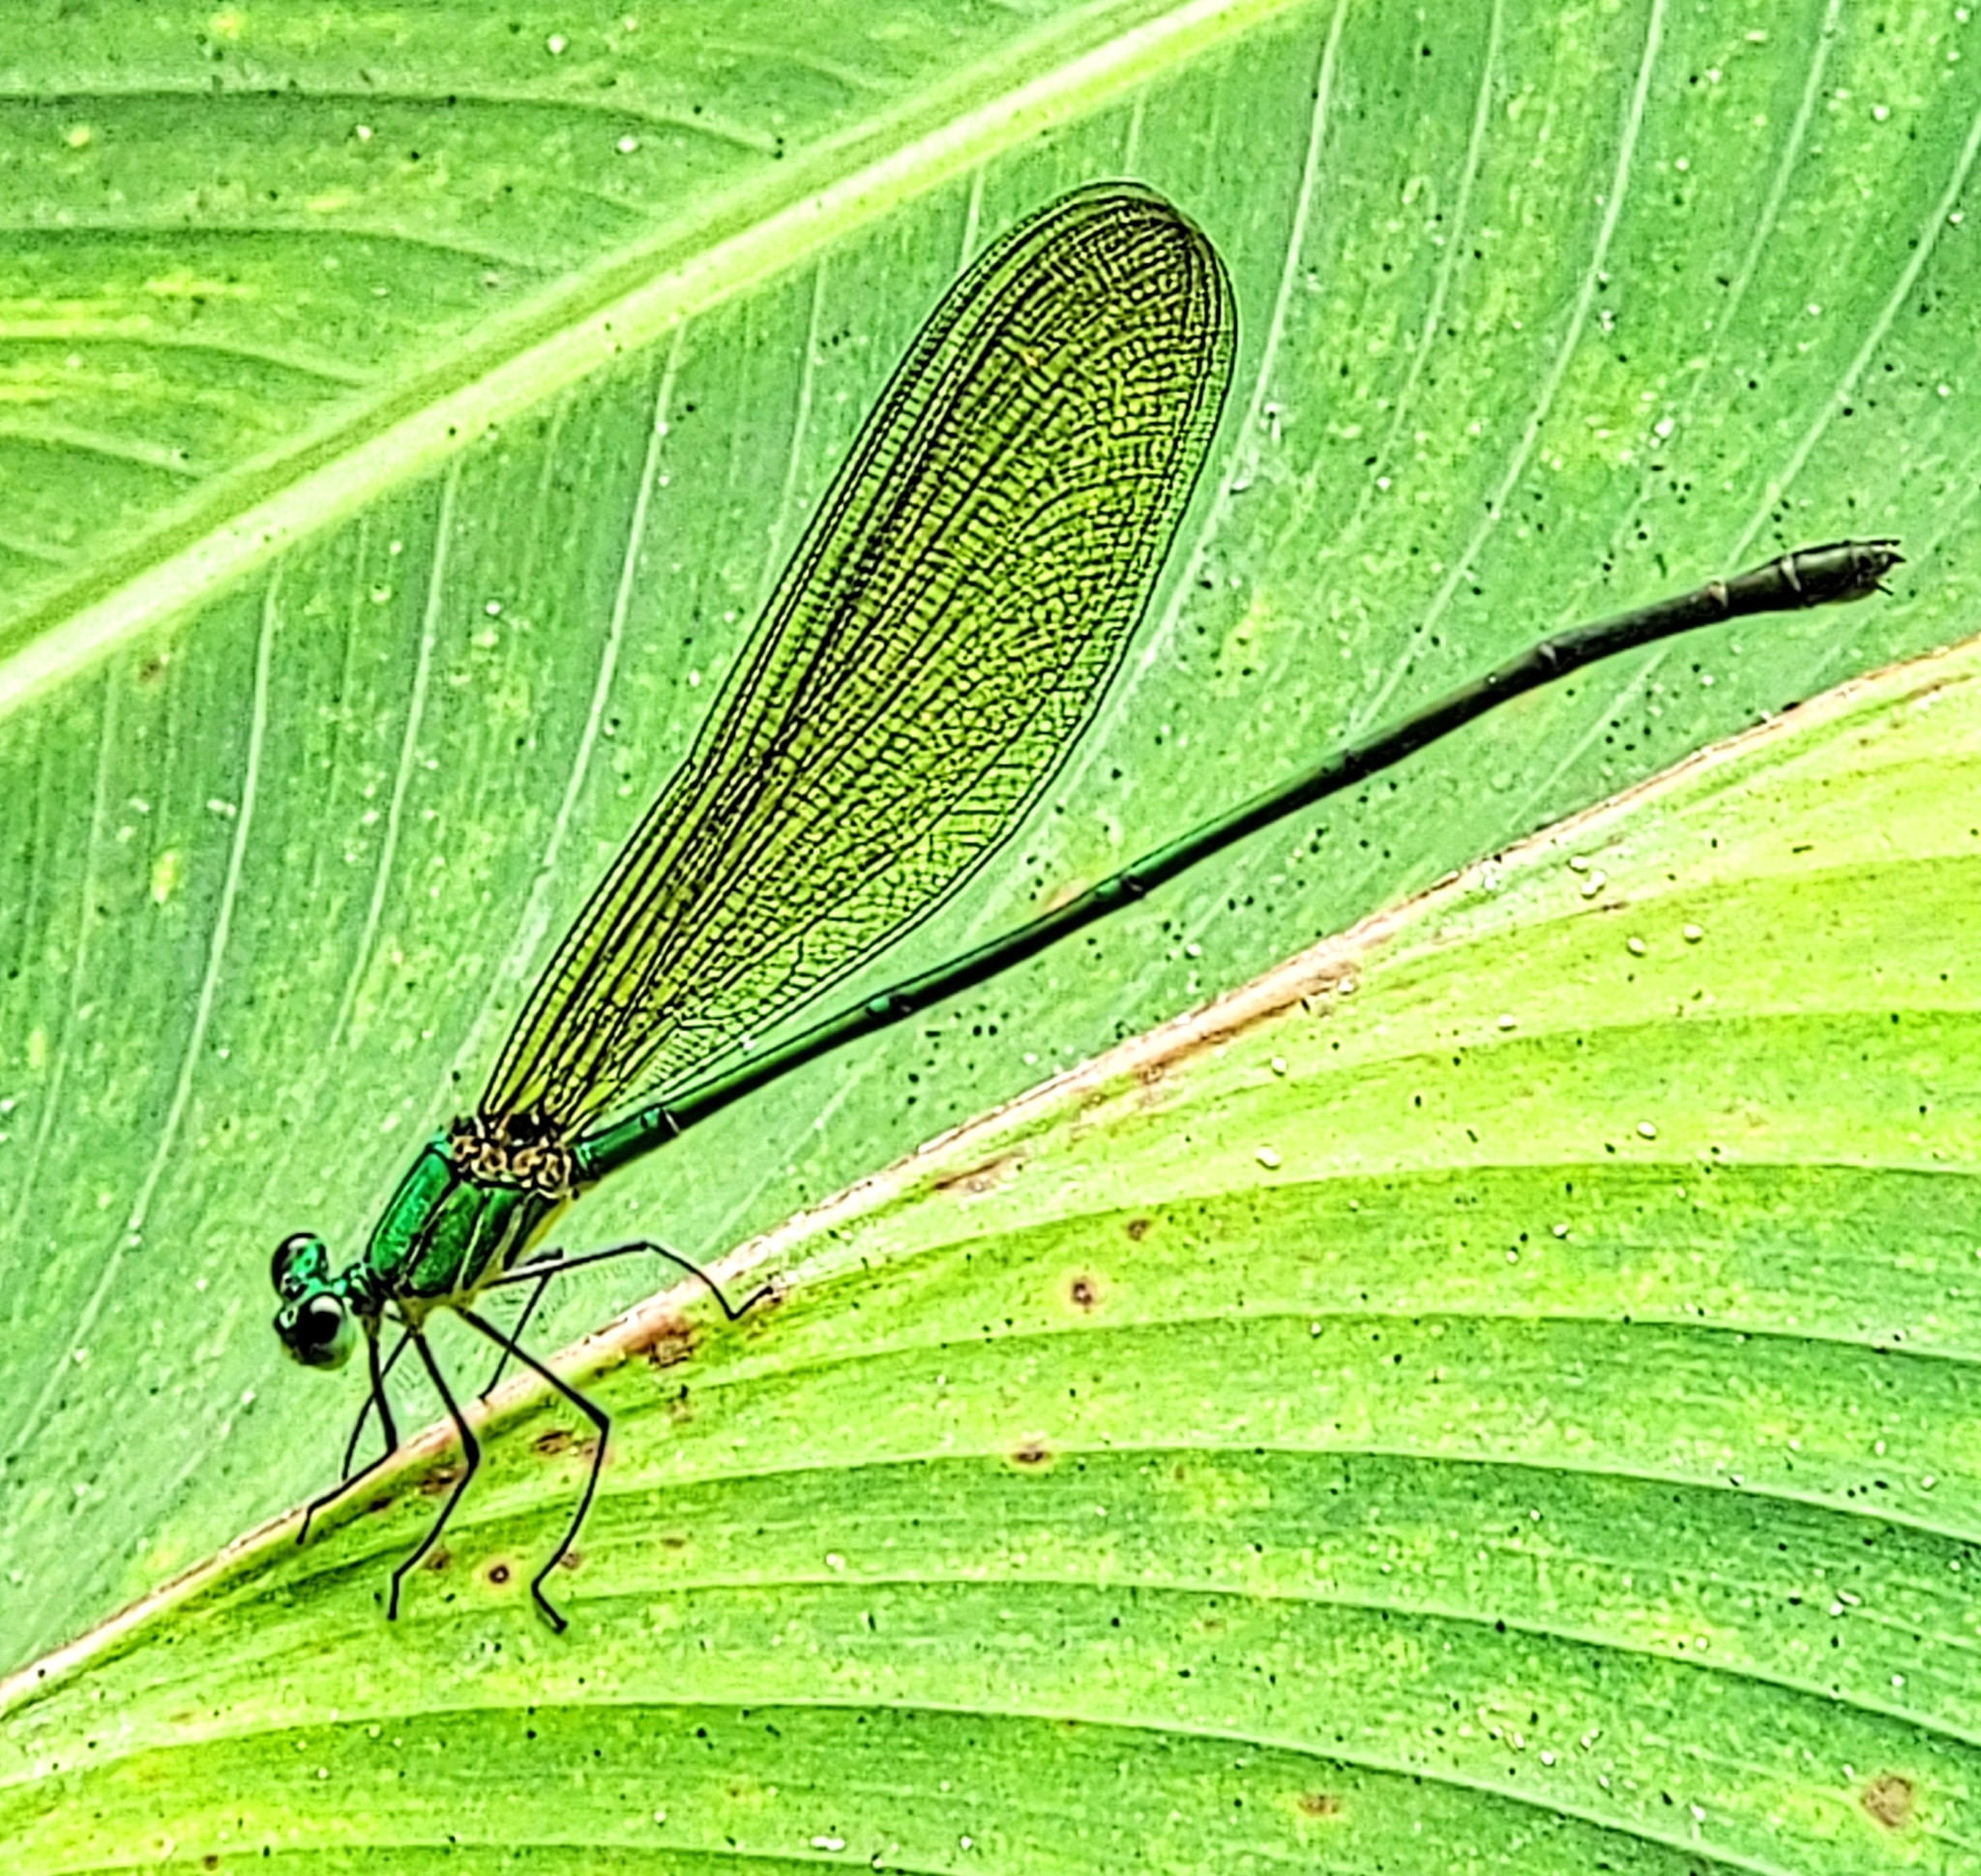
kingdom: Animalia
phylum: Arthropoda
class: Insecta
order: Odonata
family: Calopterygidae
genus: Vestalis
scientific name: Vestalis gracilis
